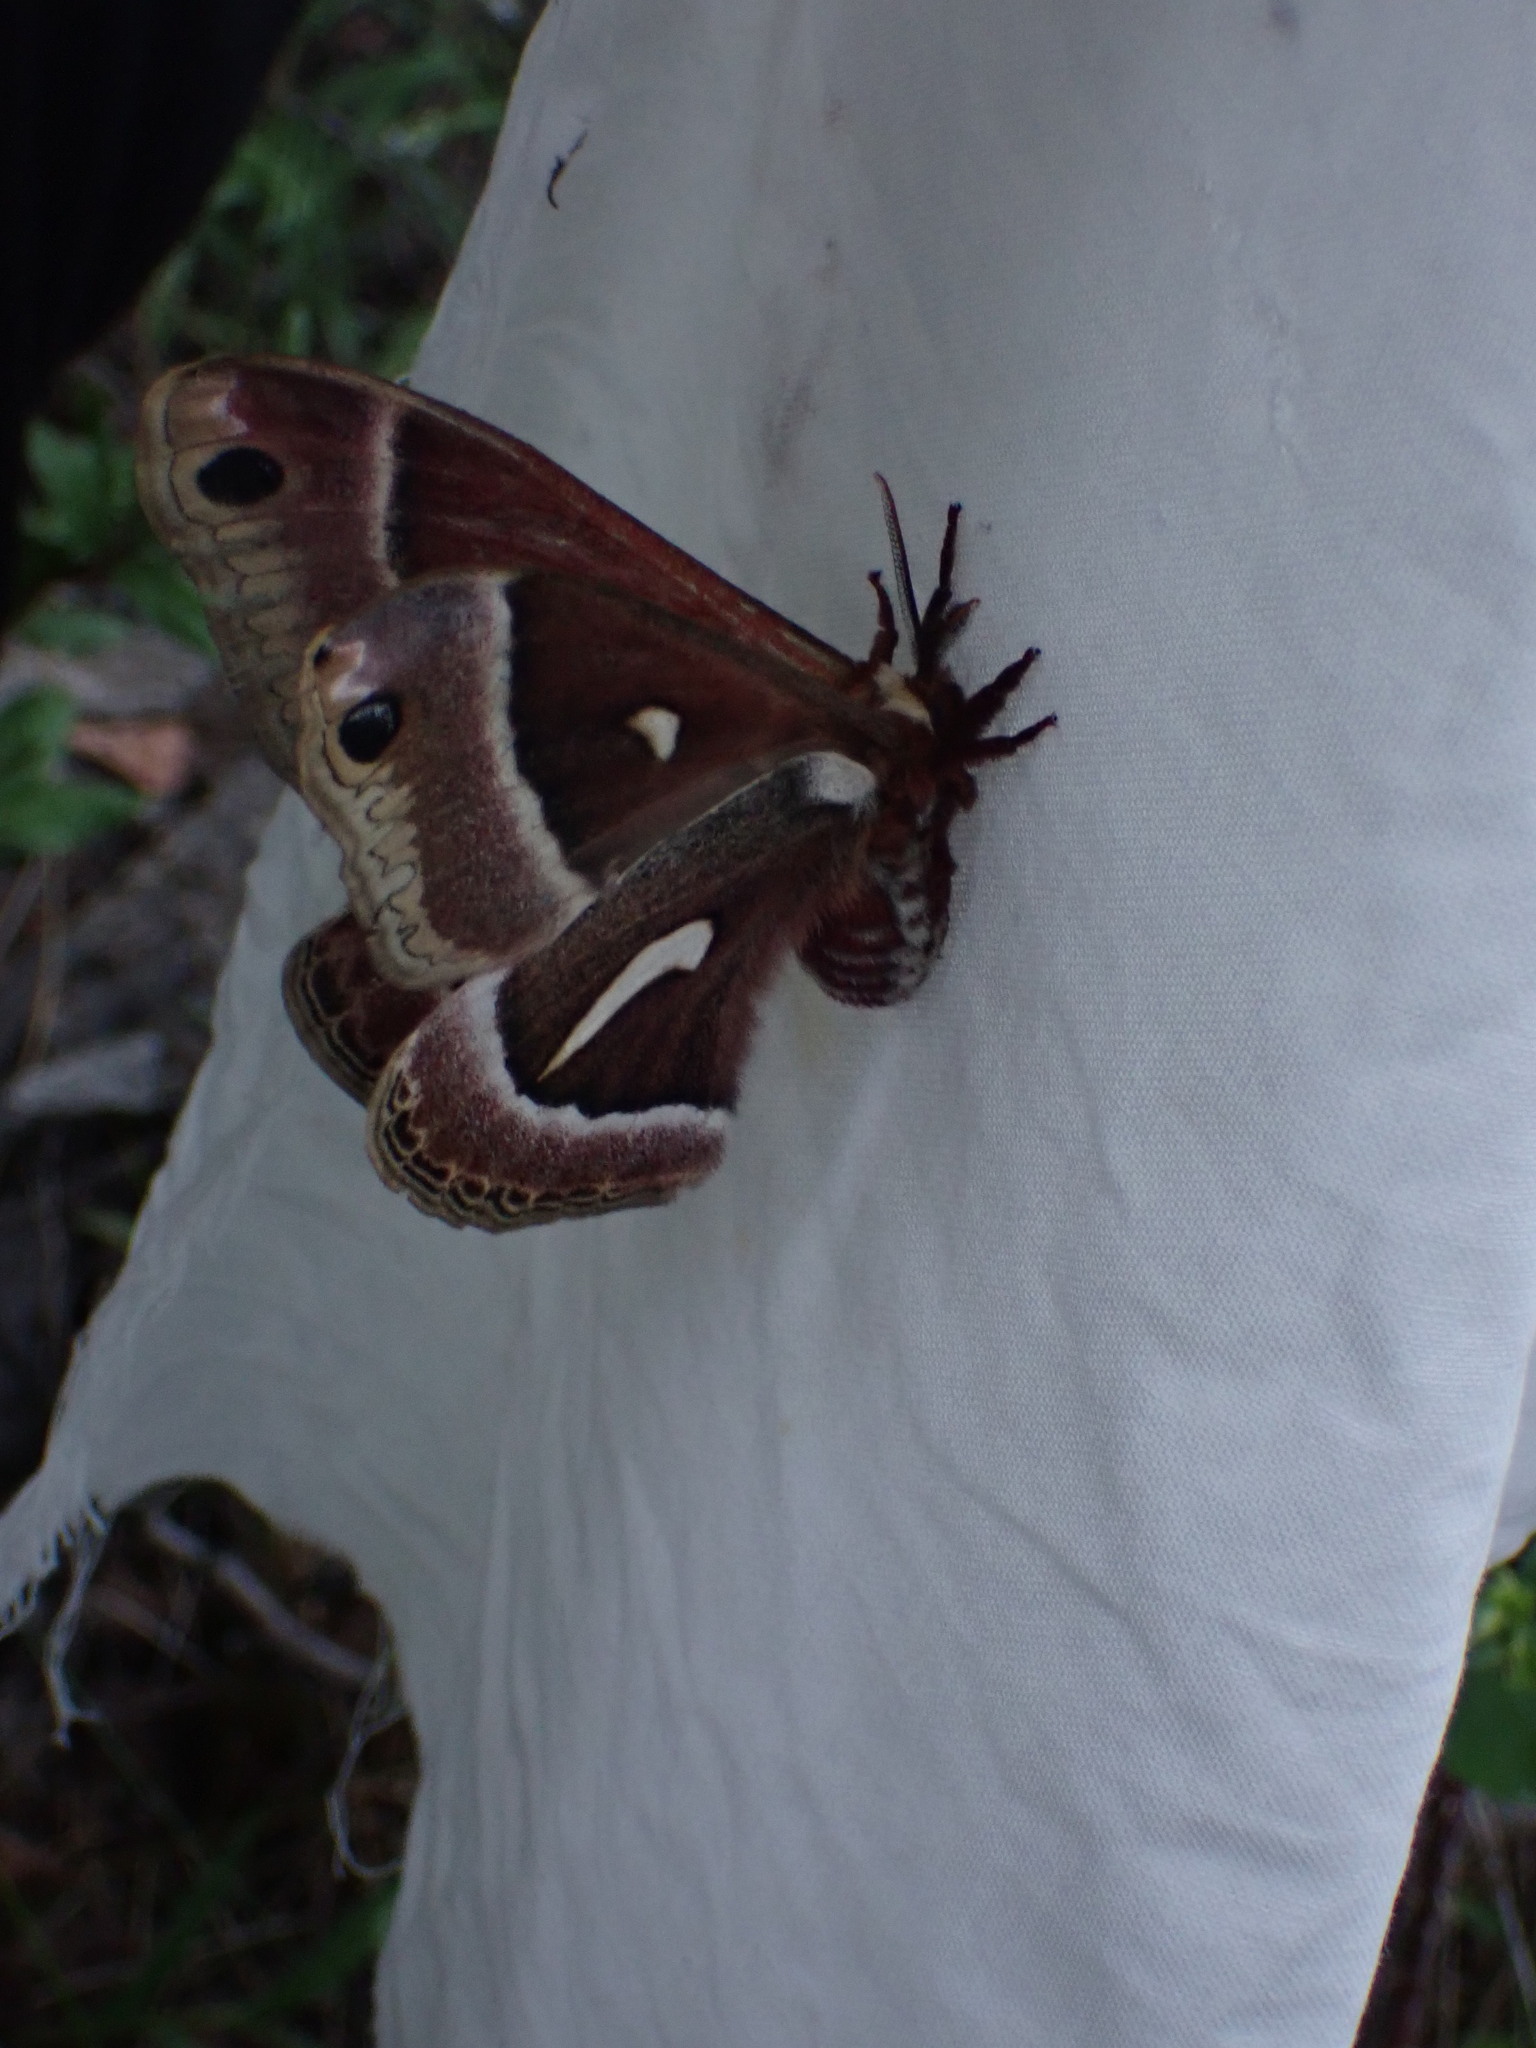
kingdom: Animalia
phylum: Arthropoda
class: Insecta
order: Lepidoptera
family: Saturniidae
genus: Hyalophora
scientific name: Hyalophora euryalus
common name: Ceanothus silkmoth
